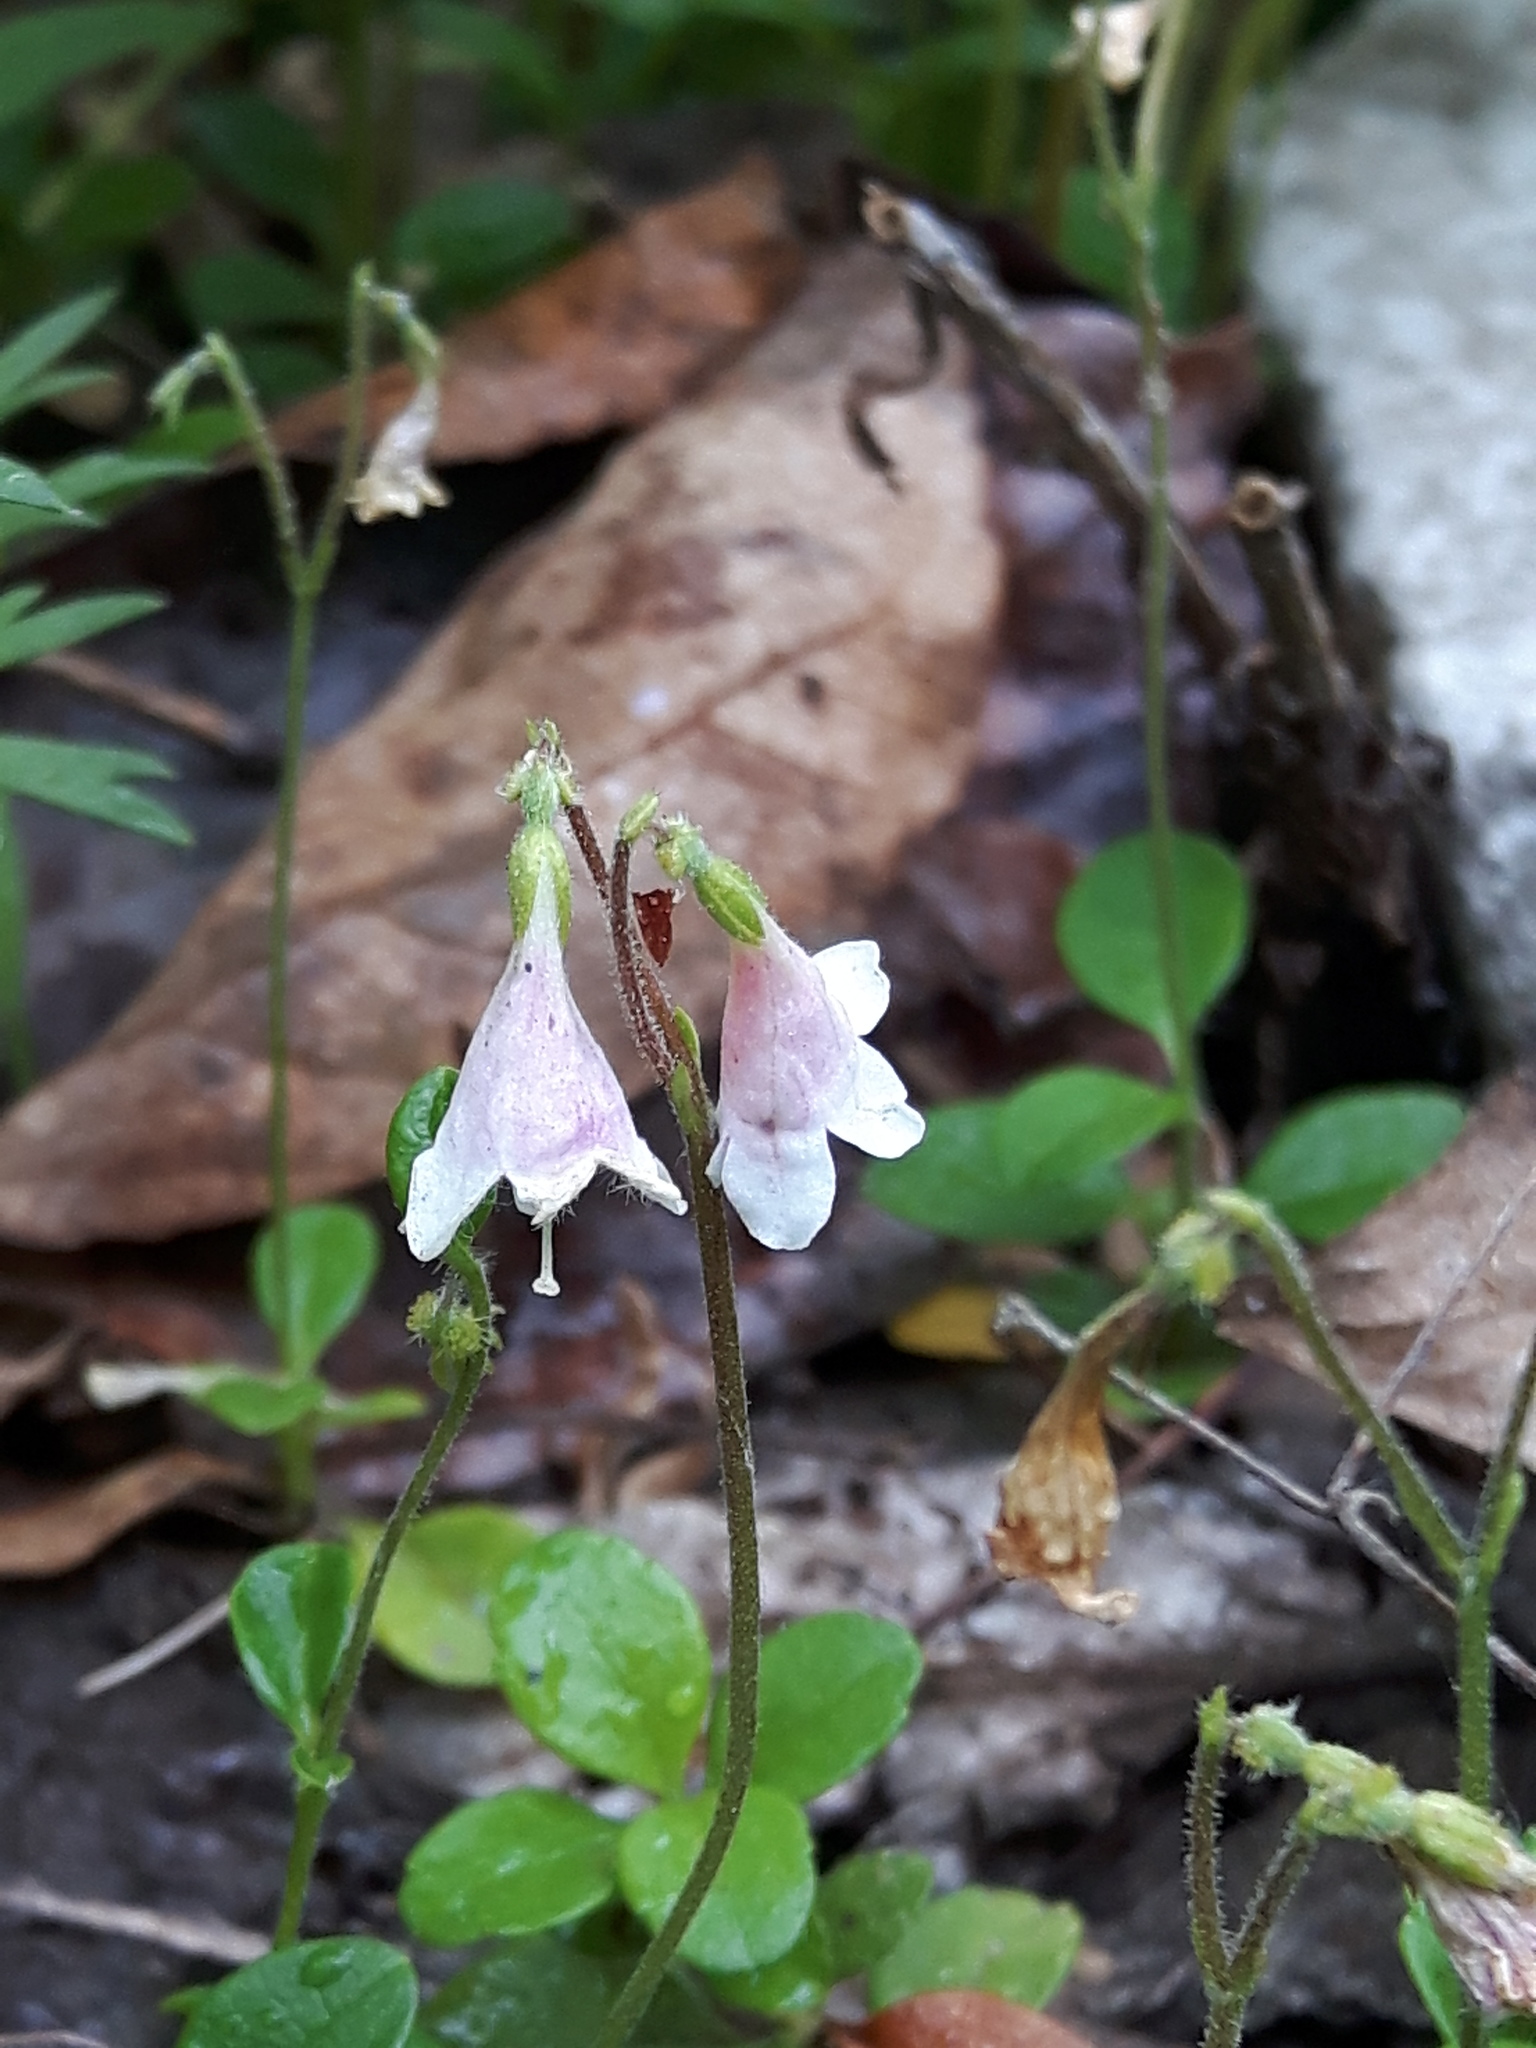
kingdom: Plantae
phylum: Tracheophyta
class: Magnoliopsida
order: Dipsacales
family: Caprifoliaceae
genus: Linnaea
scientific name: Linnaea borealis
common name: Twinflower
